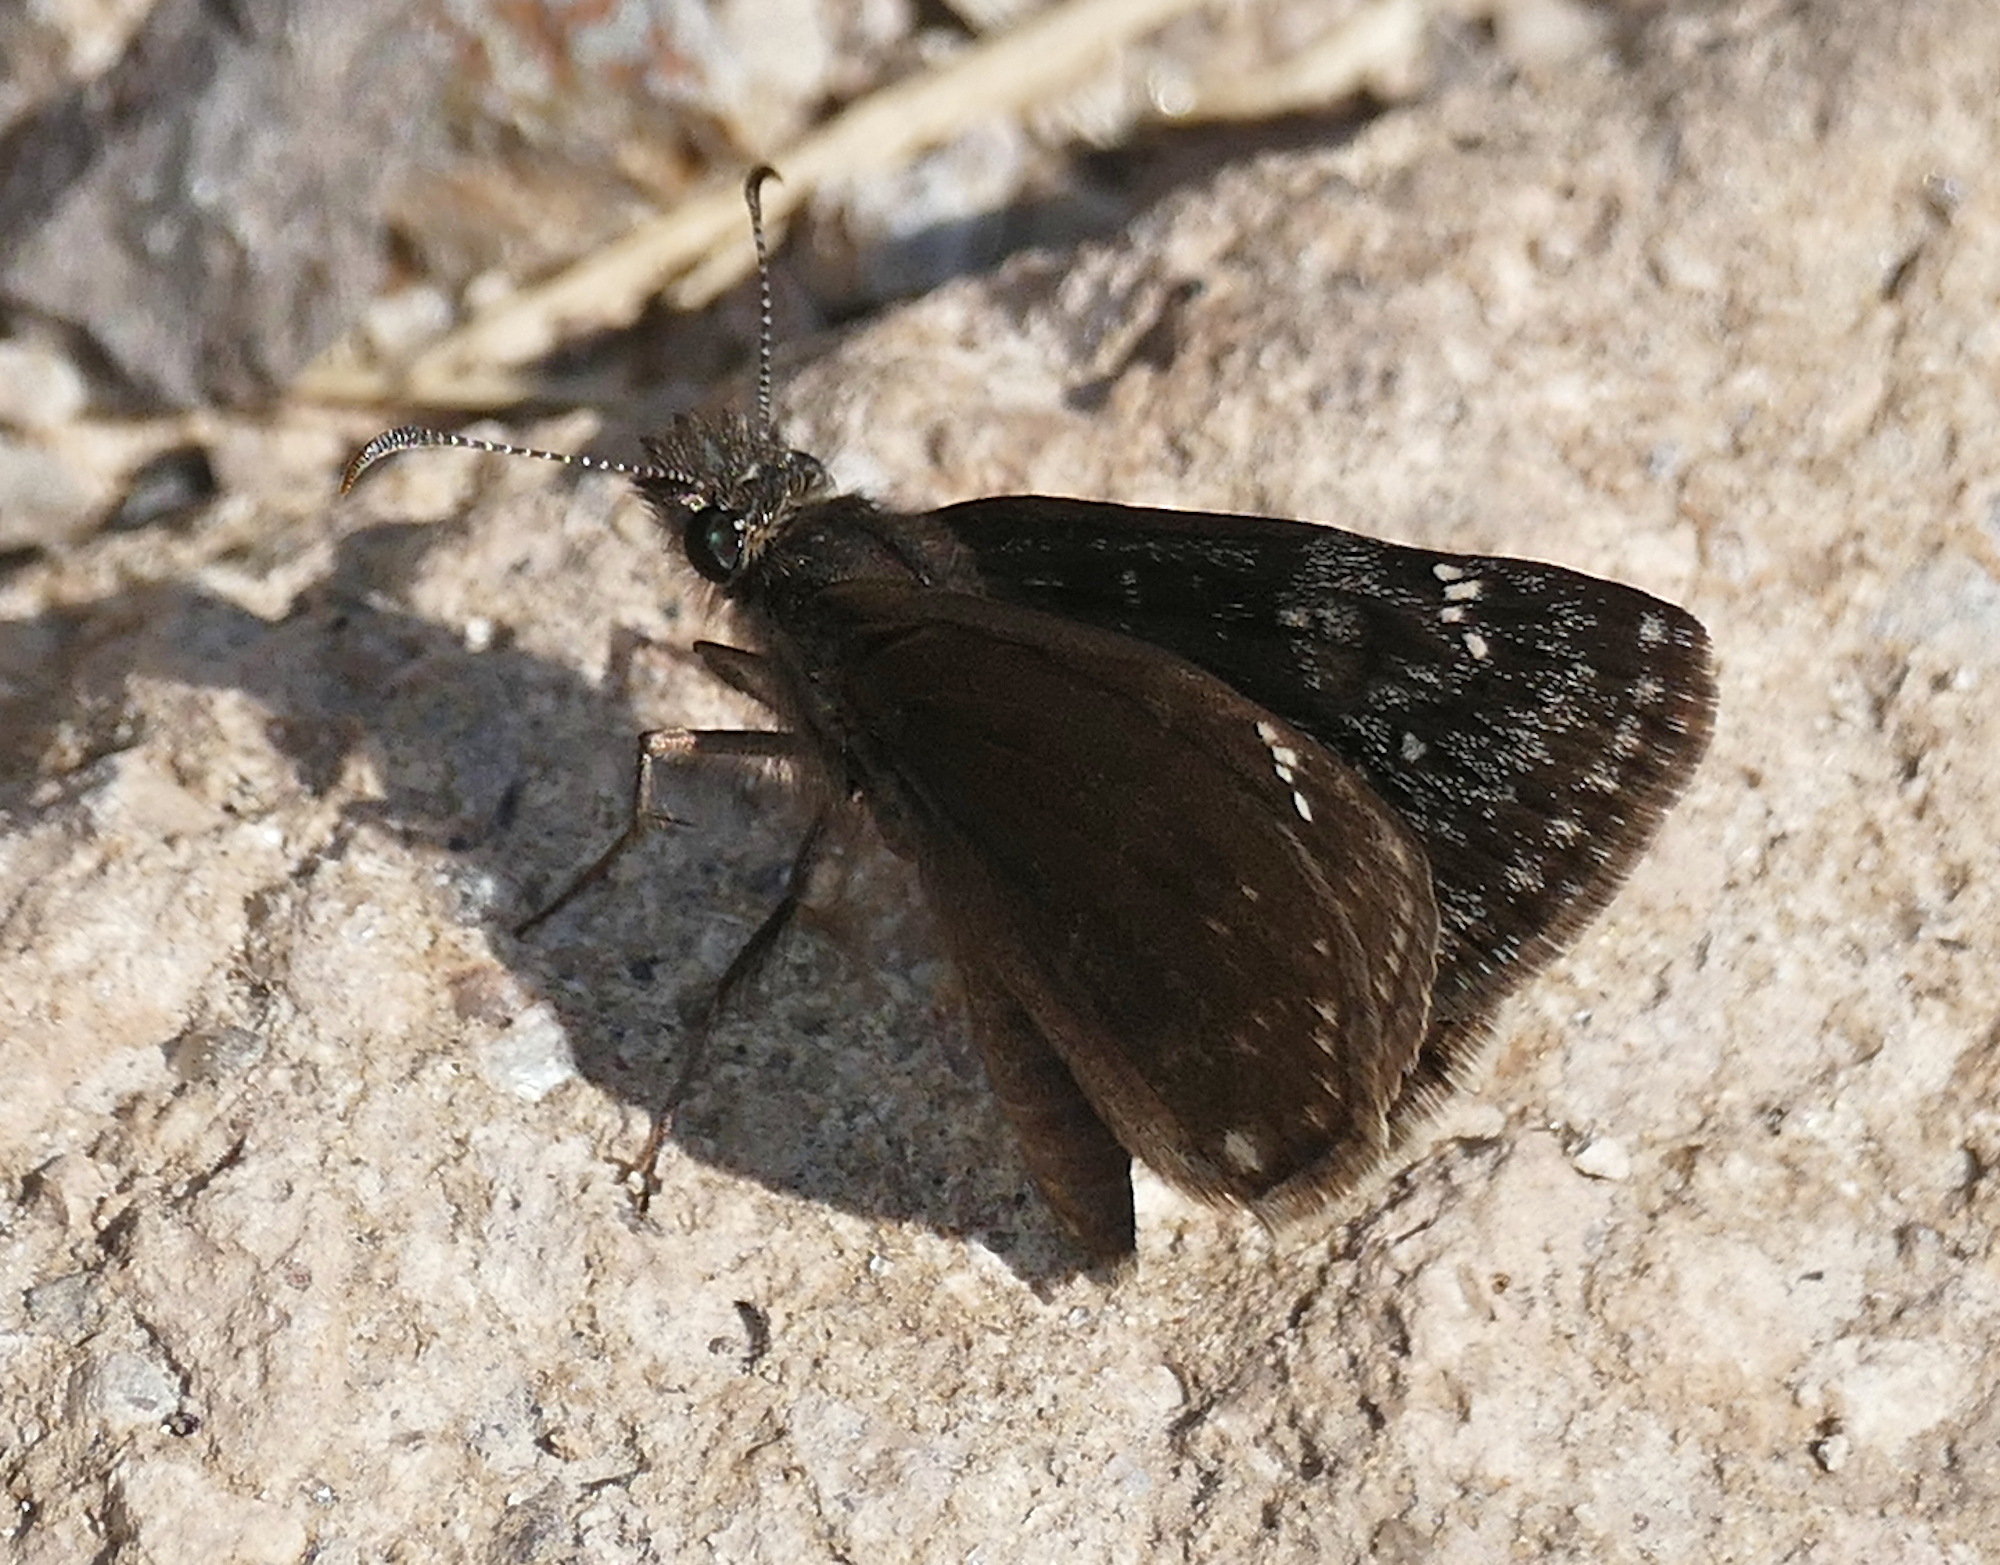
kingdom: Animalia
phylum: Arthropoda
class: Insecta
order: Lepidoptera
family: Hesperiidae
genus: Erynnis
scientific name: Erynnis meridianus
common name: Meridian duskywing
